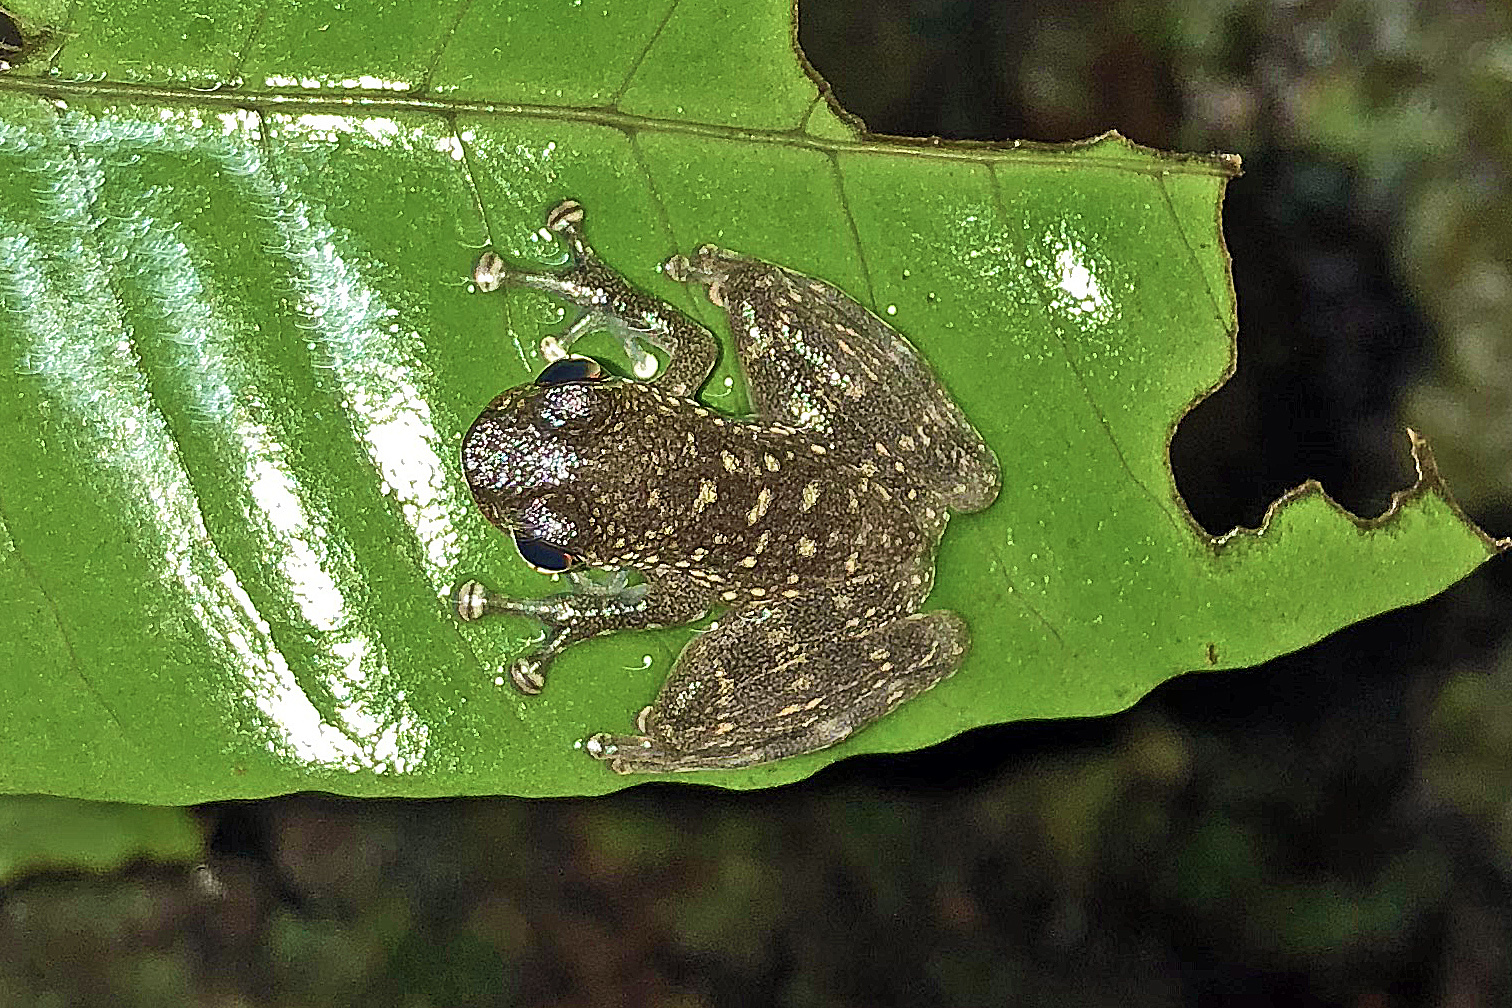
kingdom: Animalia
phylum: Chordata
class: Amphibia
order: Anura
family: Ranidae
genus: Staurois
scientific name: Staurois latopalmatus
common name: Rock skipper frog
